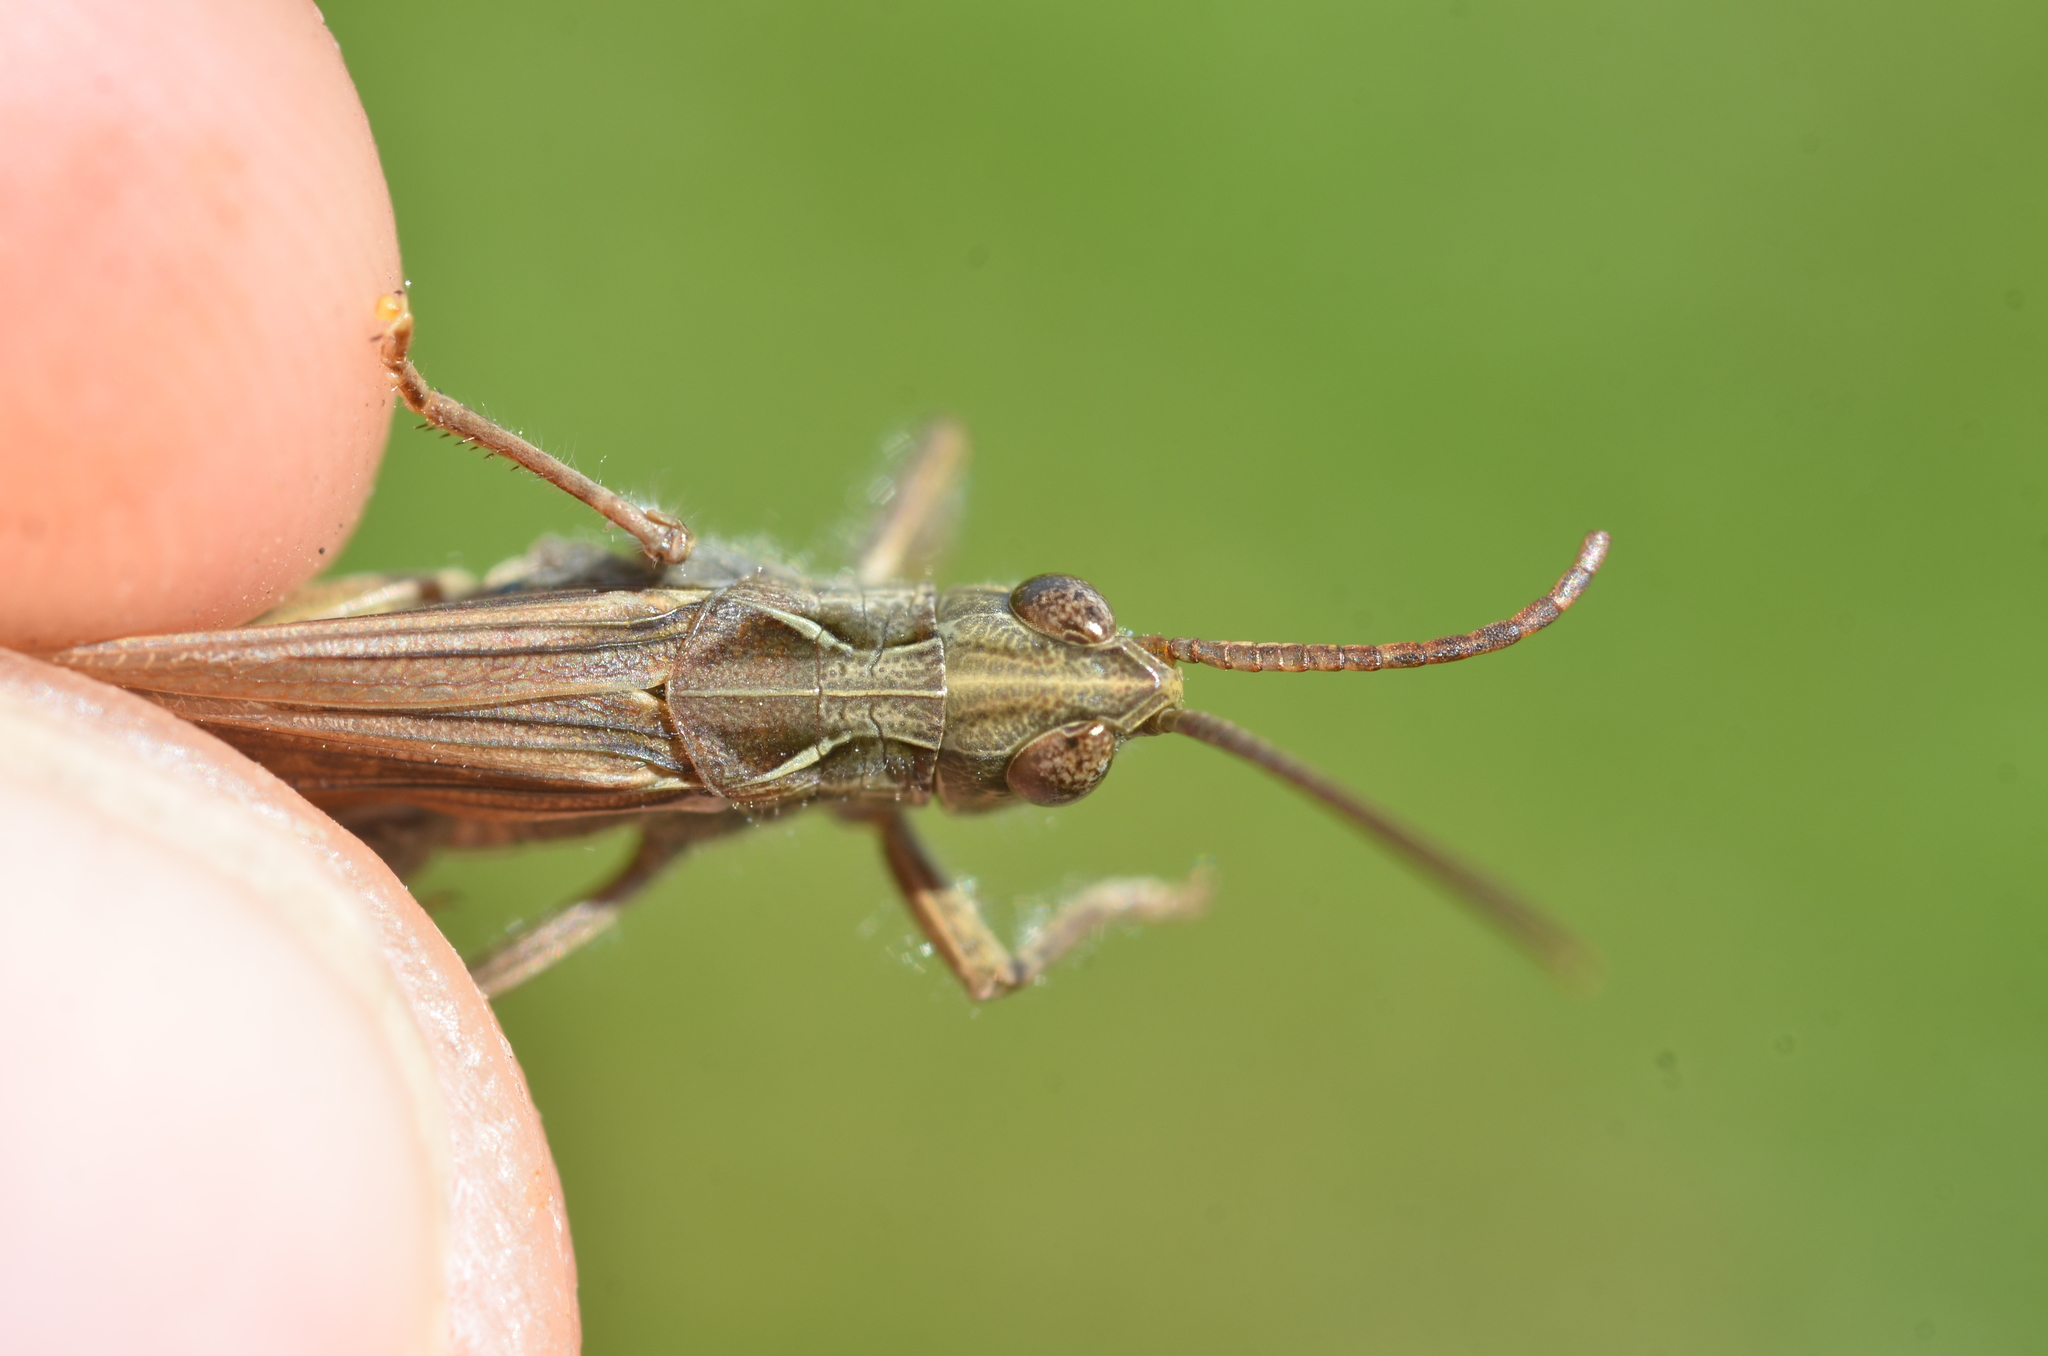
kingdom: Animalia
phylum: Arthropoda
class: Insecta
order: Orthoptera
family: Acrididae
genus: Chorthippus
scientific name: Chorthippus brunneus
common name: Field grasshopper
